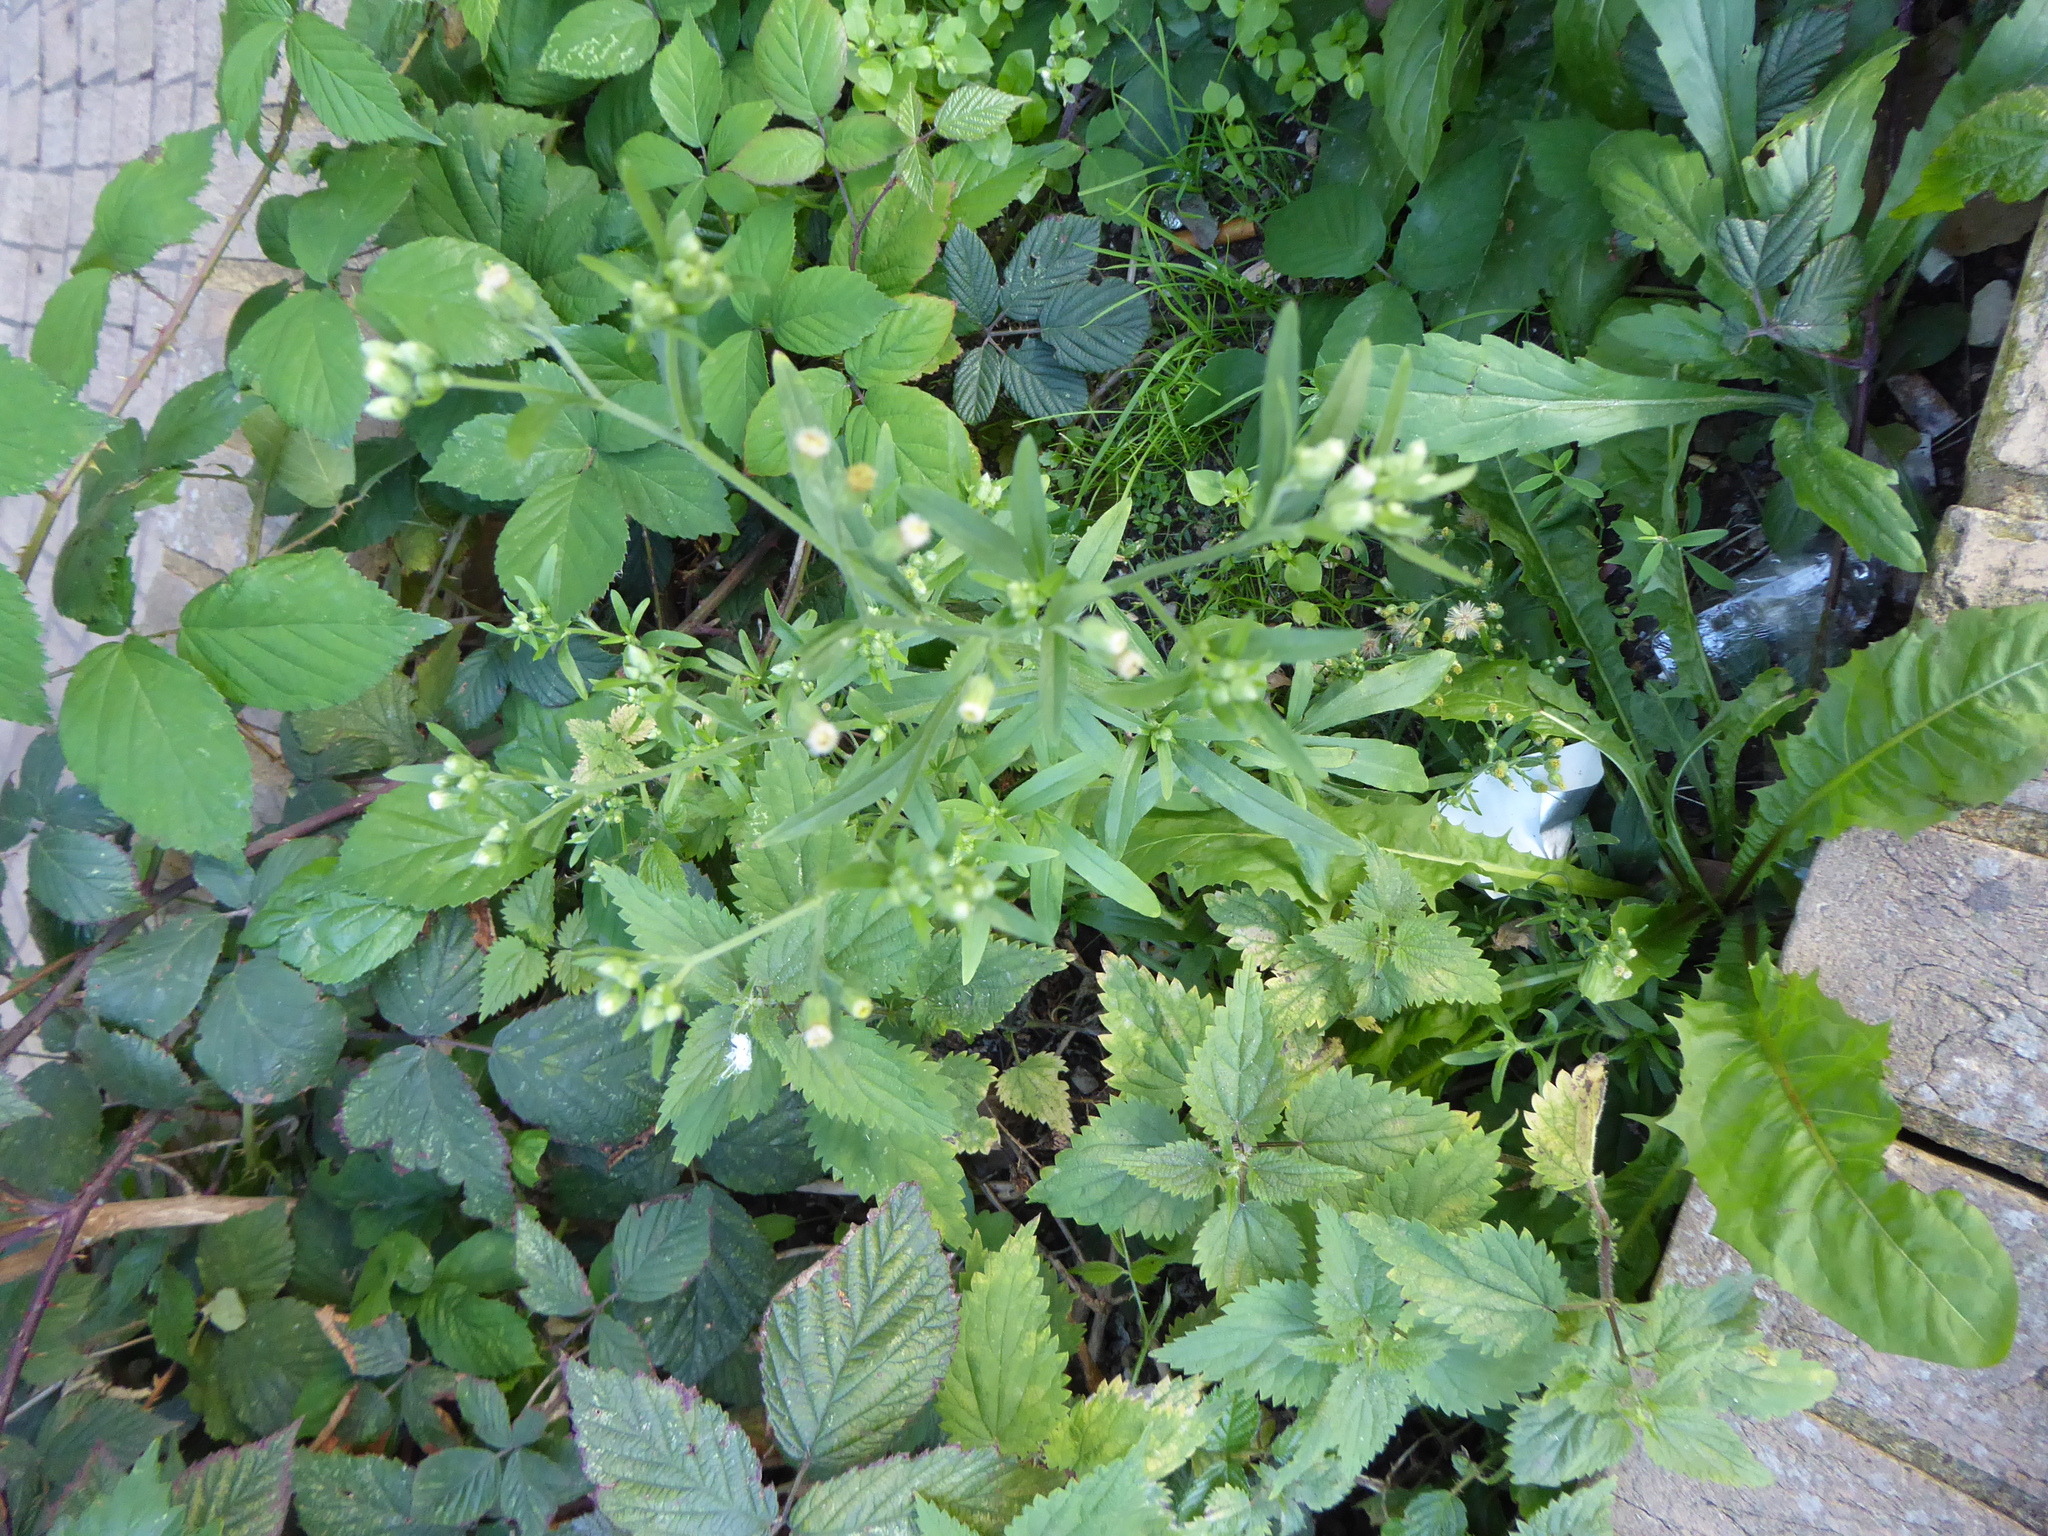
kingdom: Plantae
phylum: Tracheophyta
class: Magnoliopsida
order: Asterales
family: Asteraceae
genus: Erigeron
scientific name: Erigeron sumatrensis
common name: Daisy
